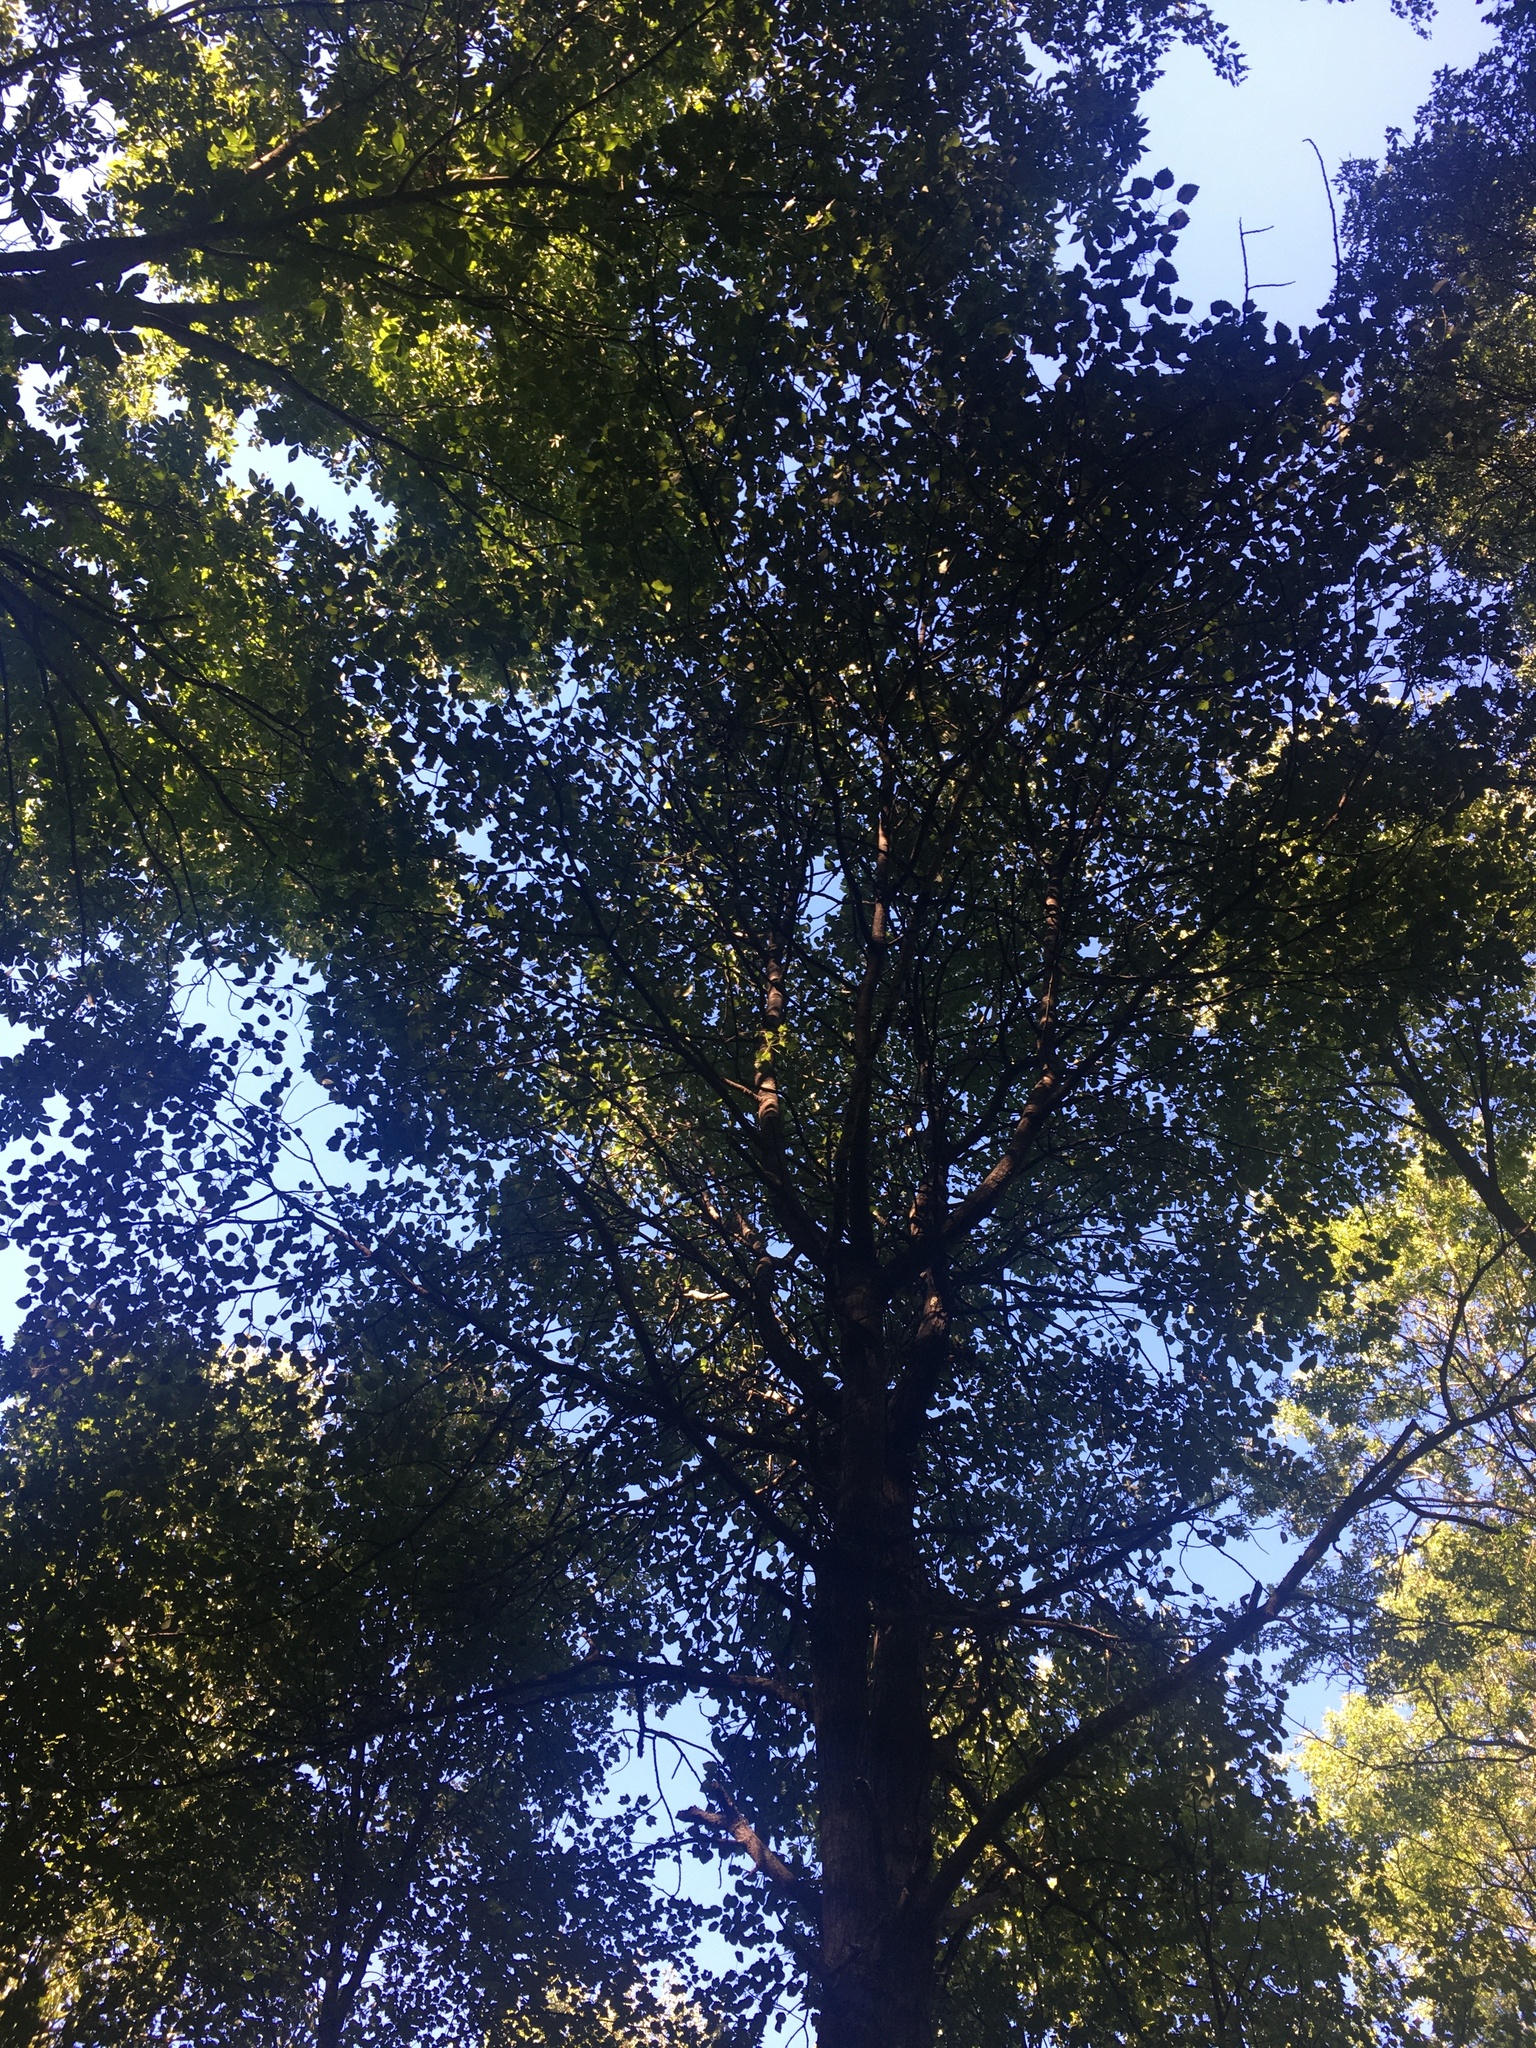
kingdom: Plantae
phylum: Tracheophyta
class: Magnoliopsida
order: Malpighiales
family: Salicaceae
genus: Populus
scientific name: Populus grandidentata
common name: Bigtooth aspen
